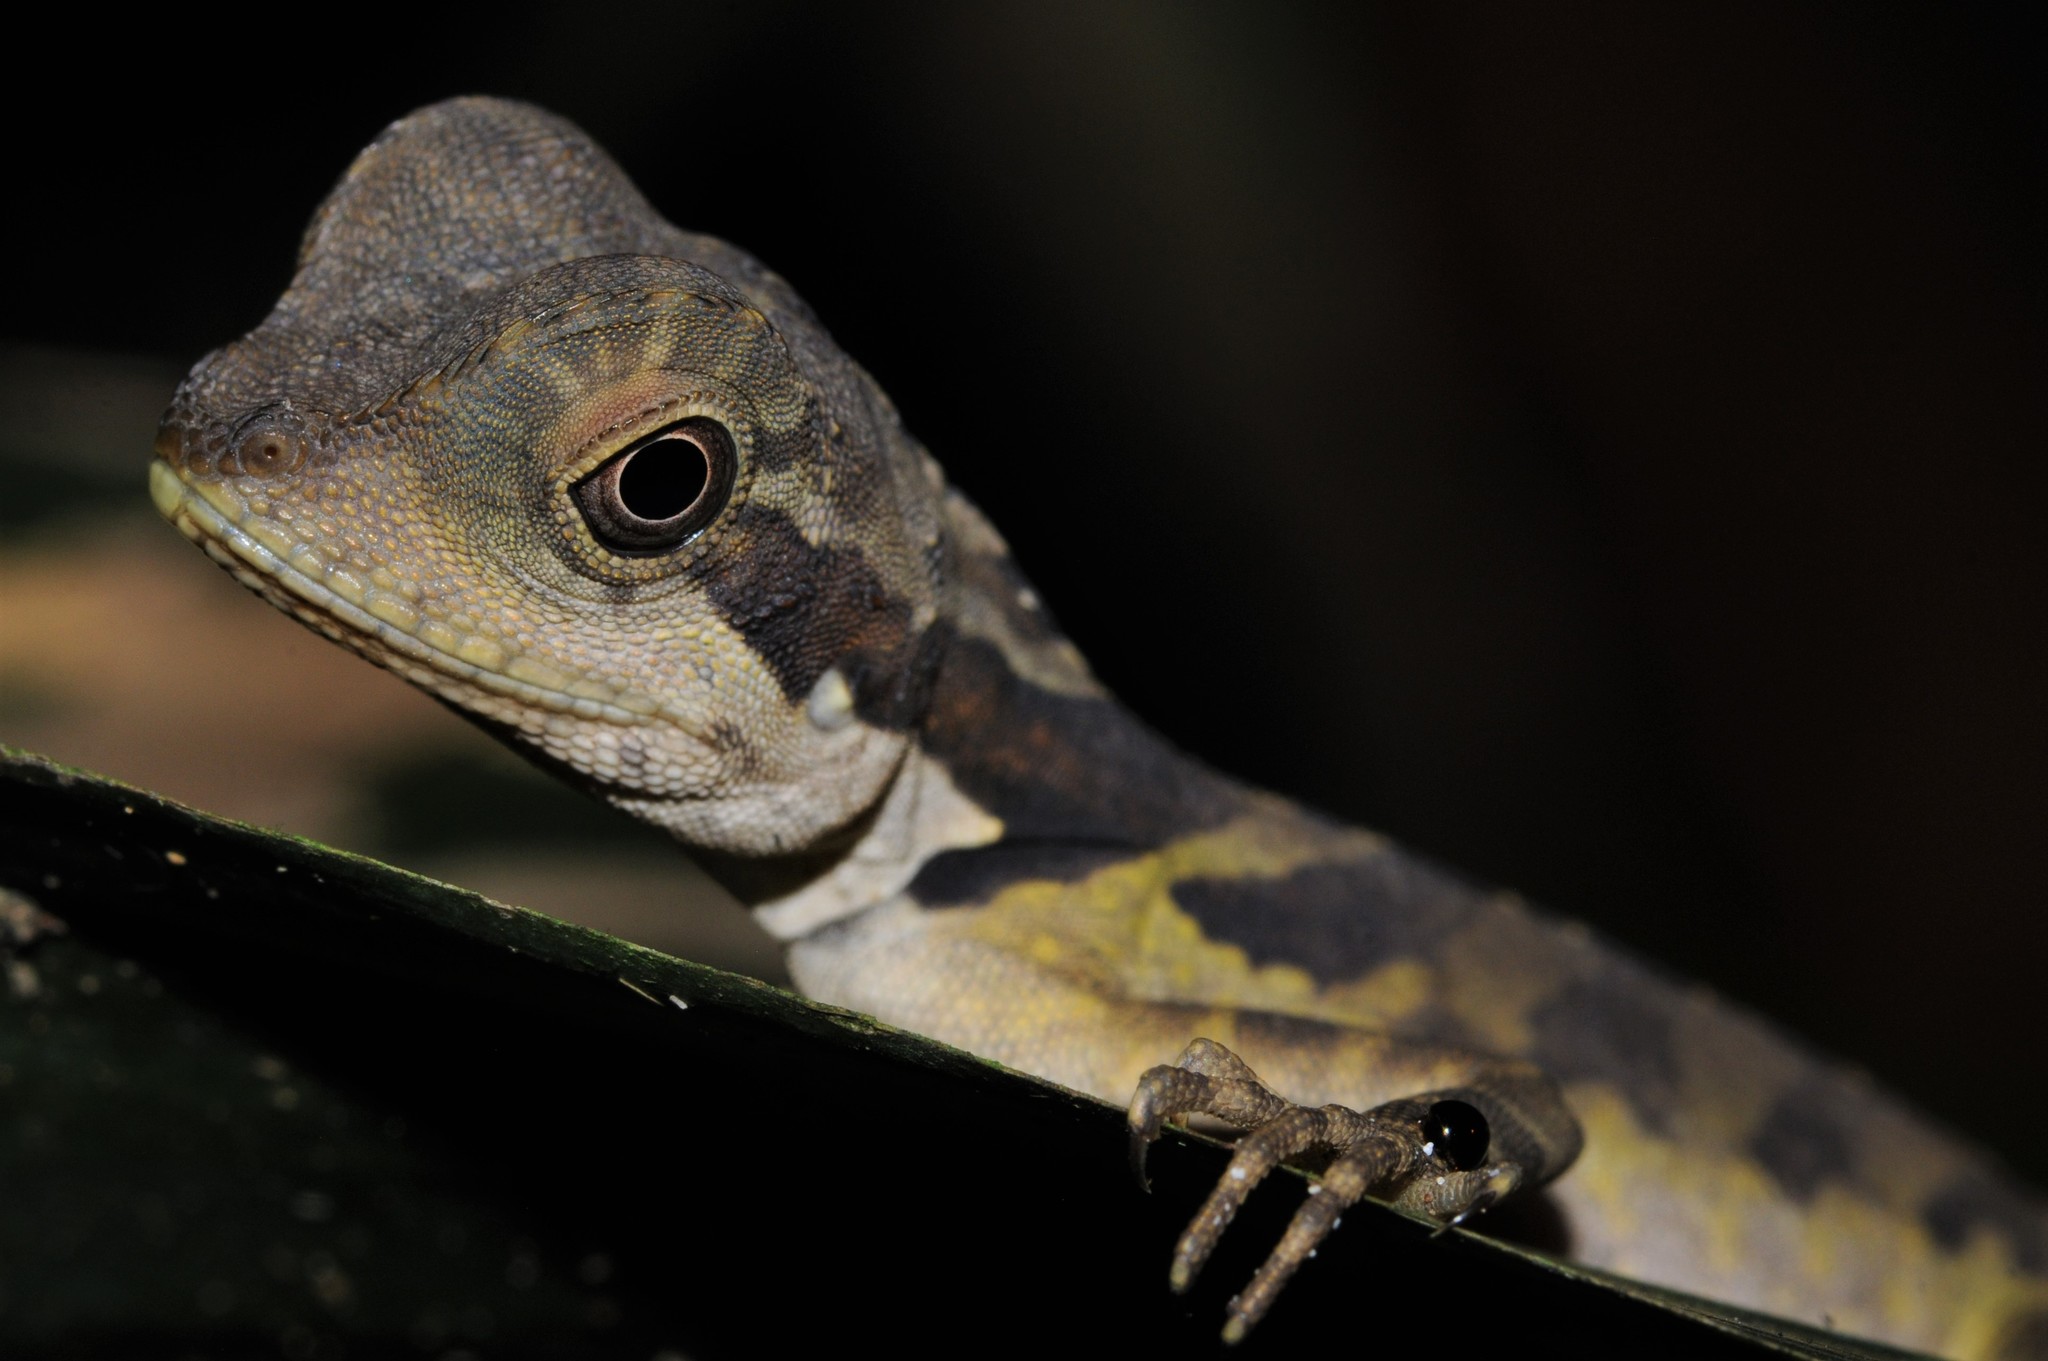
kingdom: Animalia
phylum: Chordata
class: Squamata
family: Agamidae
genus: Gonocephalus
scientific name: Gonocephalus grandis
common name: Giant forest dragon
